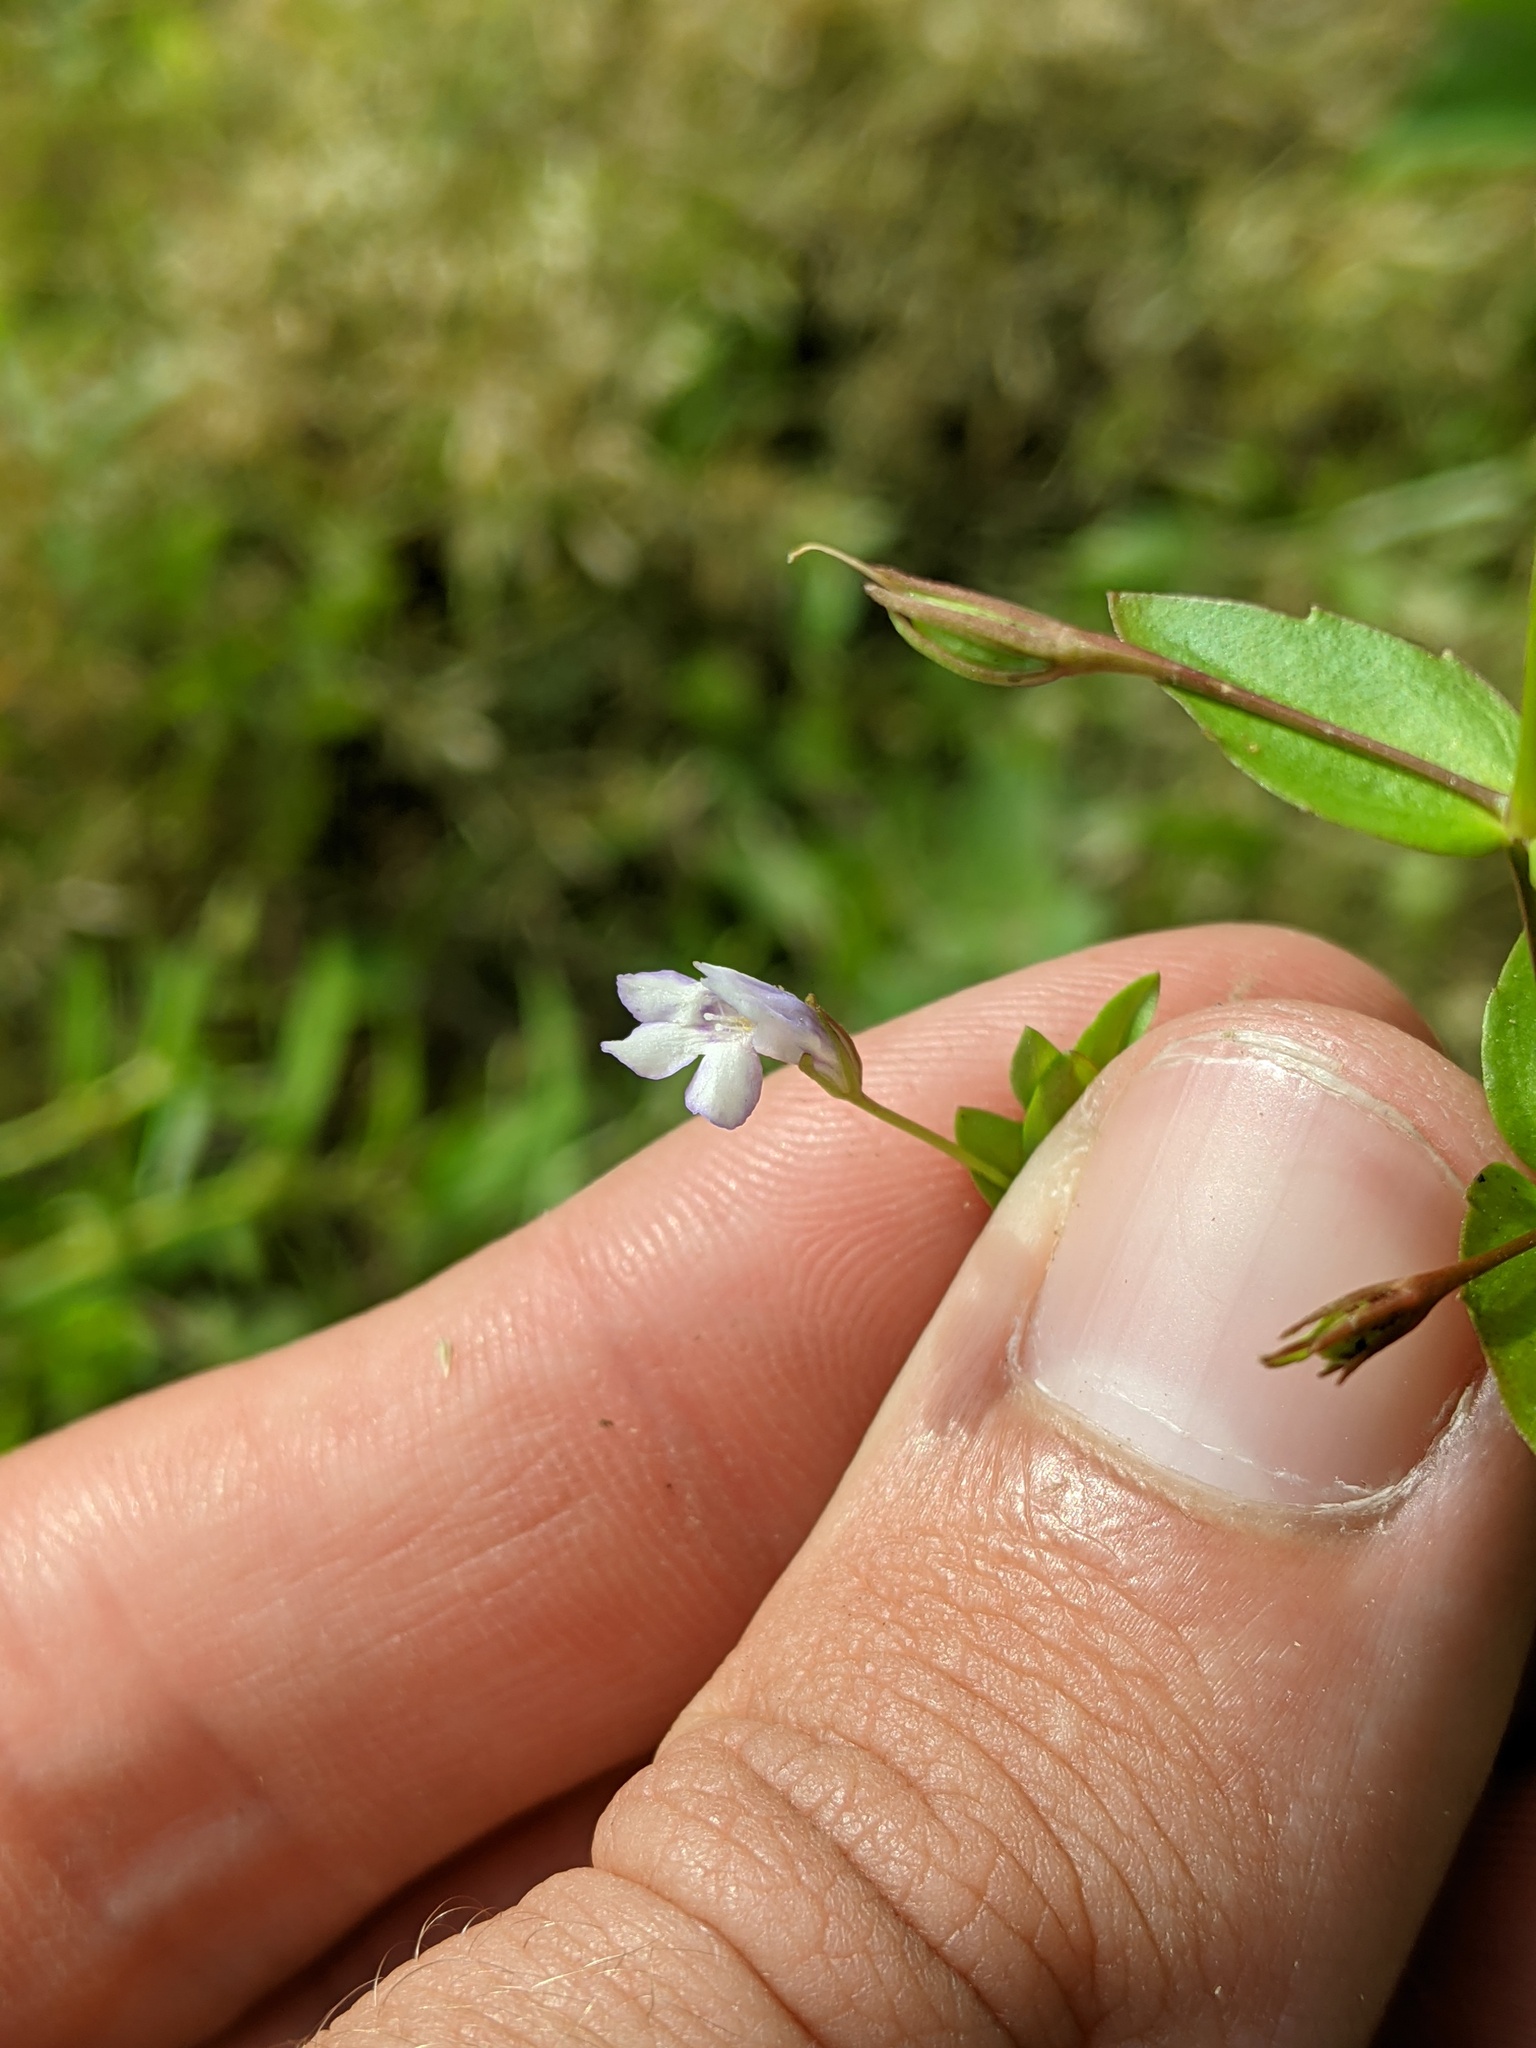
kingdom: Plantae
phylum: Tracheophyta
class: Magnoliopsida
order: Lamiales
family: Linderniaceae
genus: Lindernia
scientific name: Lindernia dubia
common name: Annual false pimpernel
